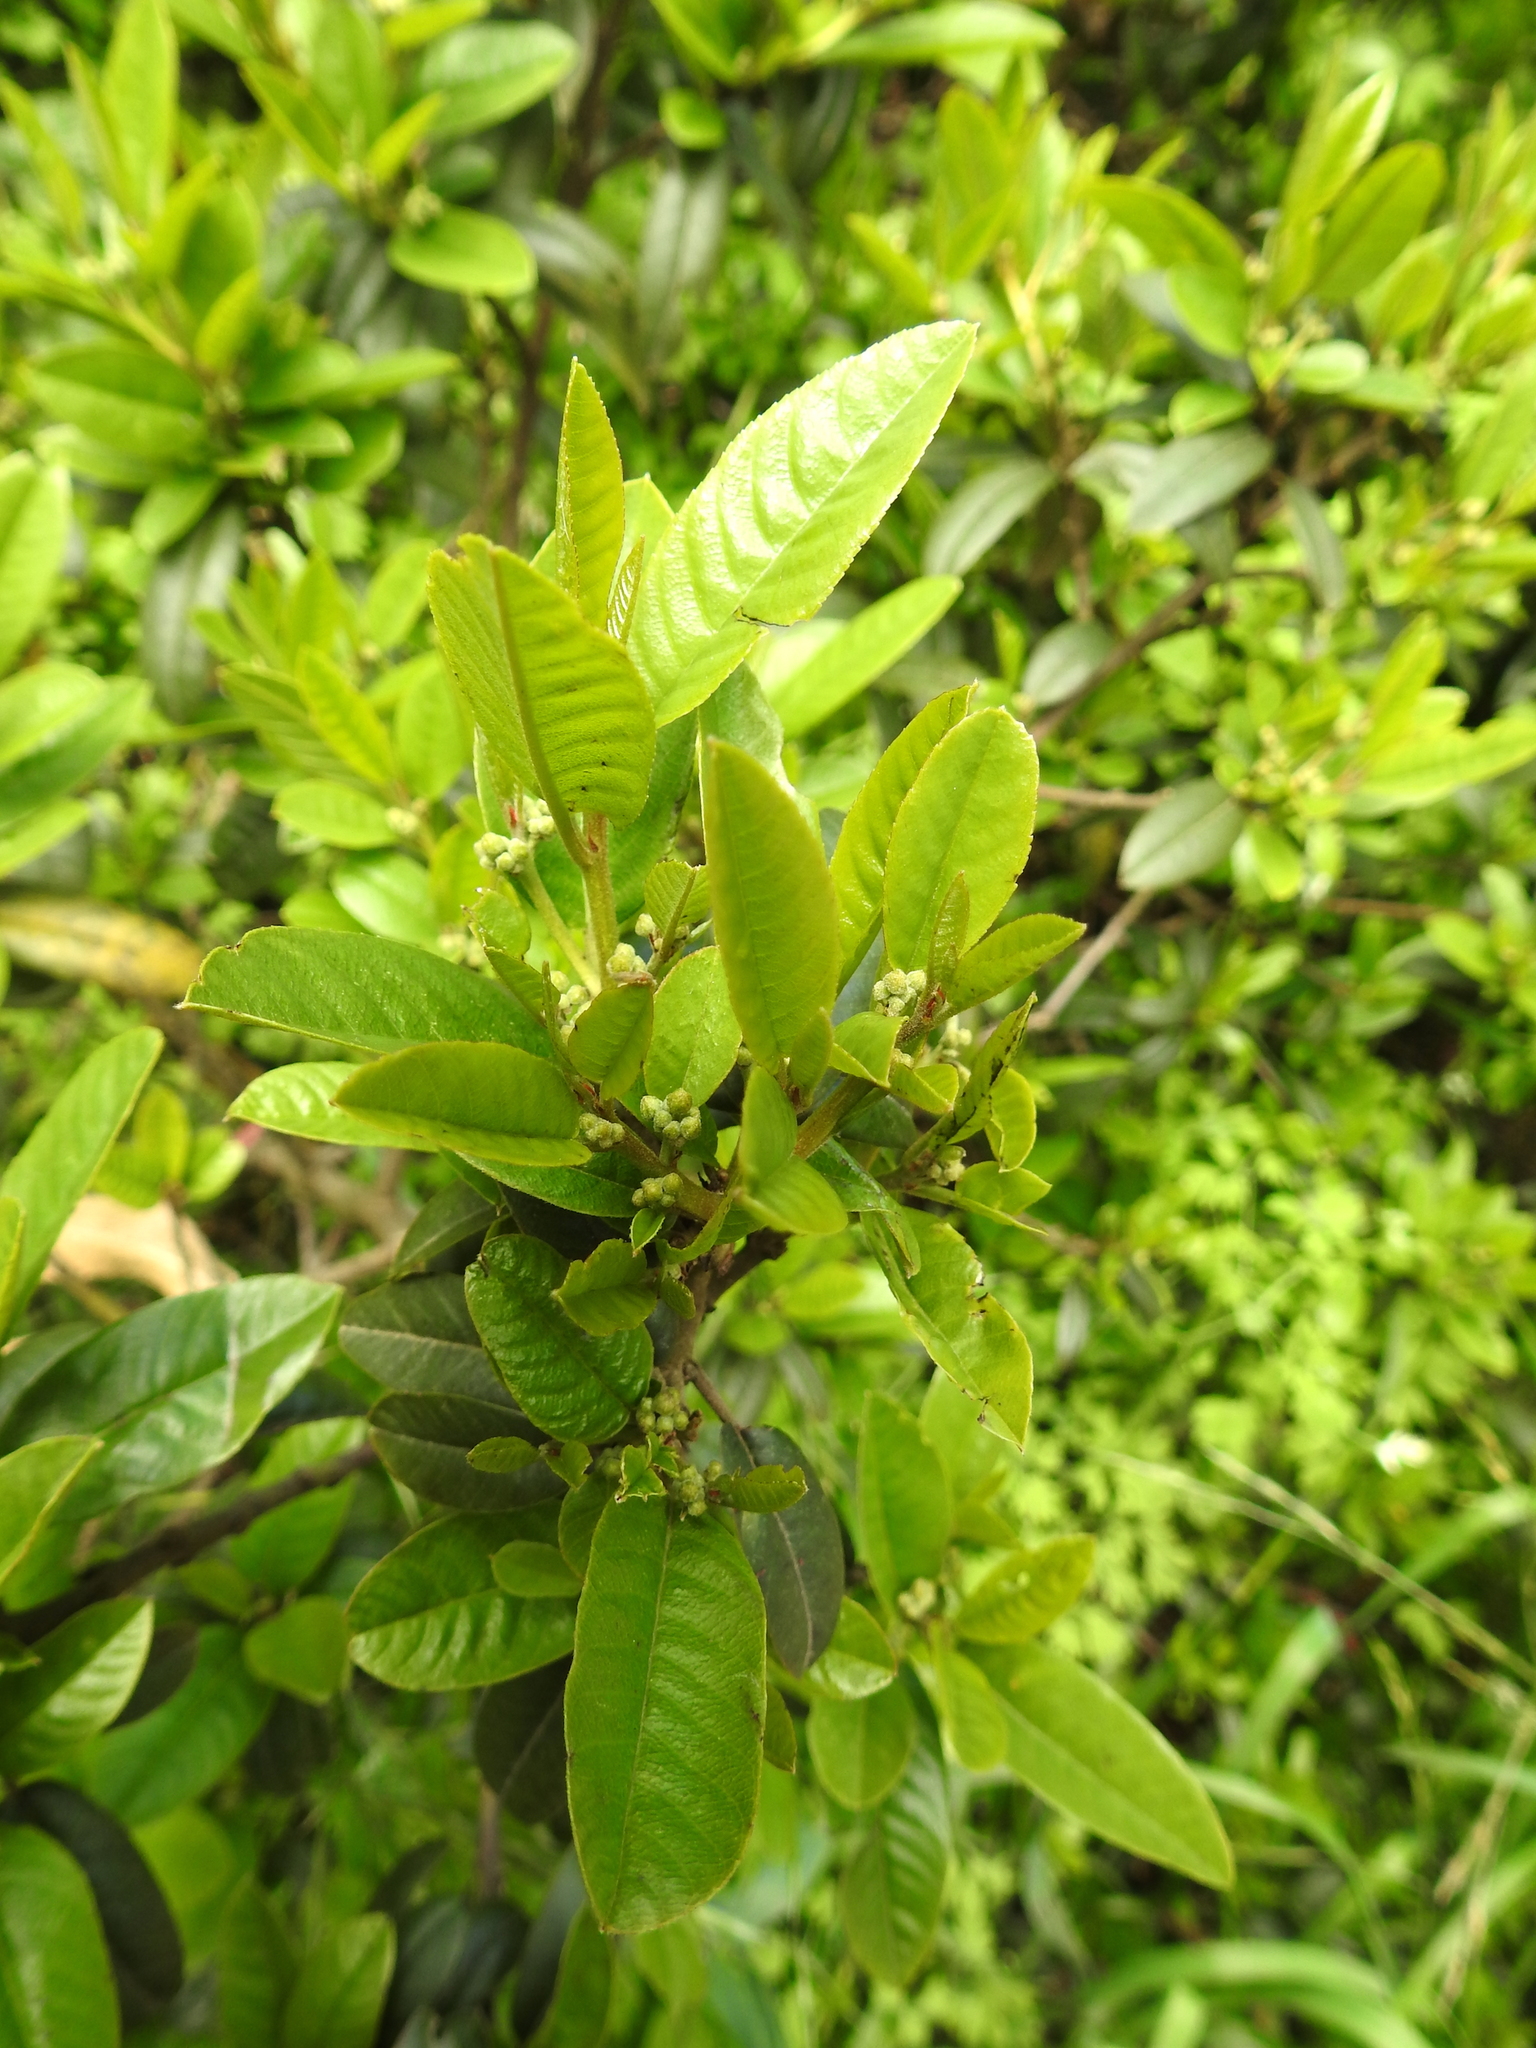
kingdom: Plantae
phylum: Tracheophyta
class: Magnoliopsida
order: Rosales
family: Rhamnaceae
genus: Frangula
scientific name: Frangula californica
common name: California buckthorn
